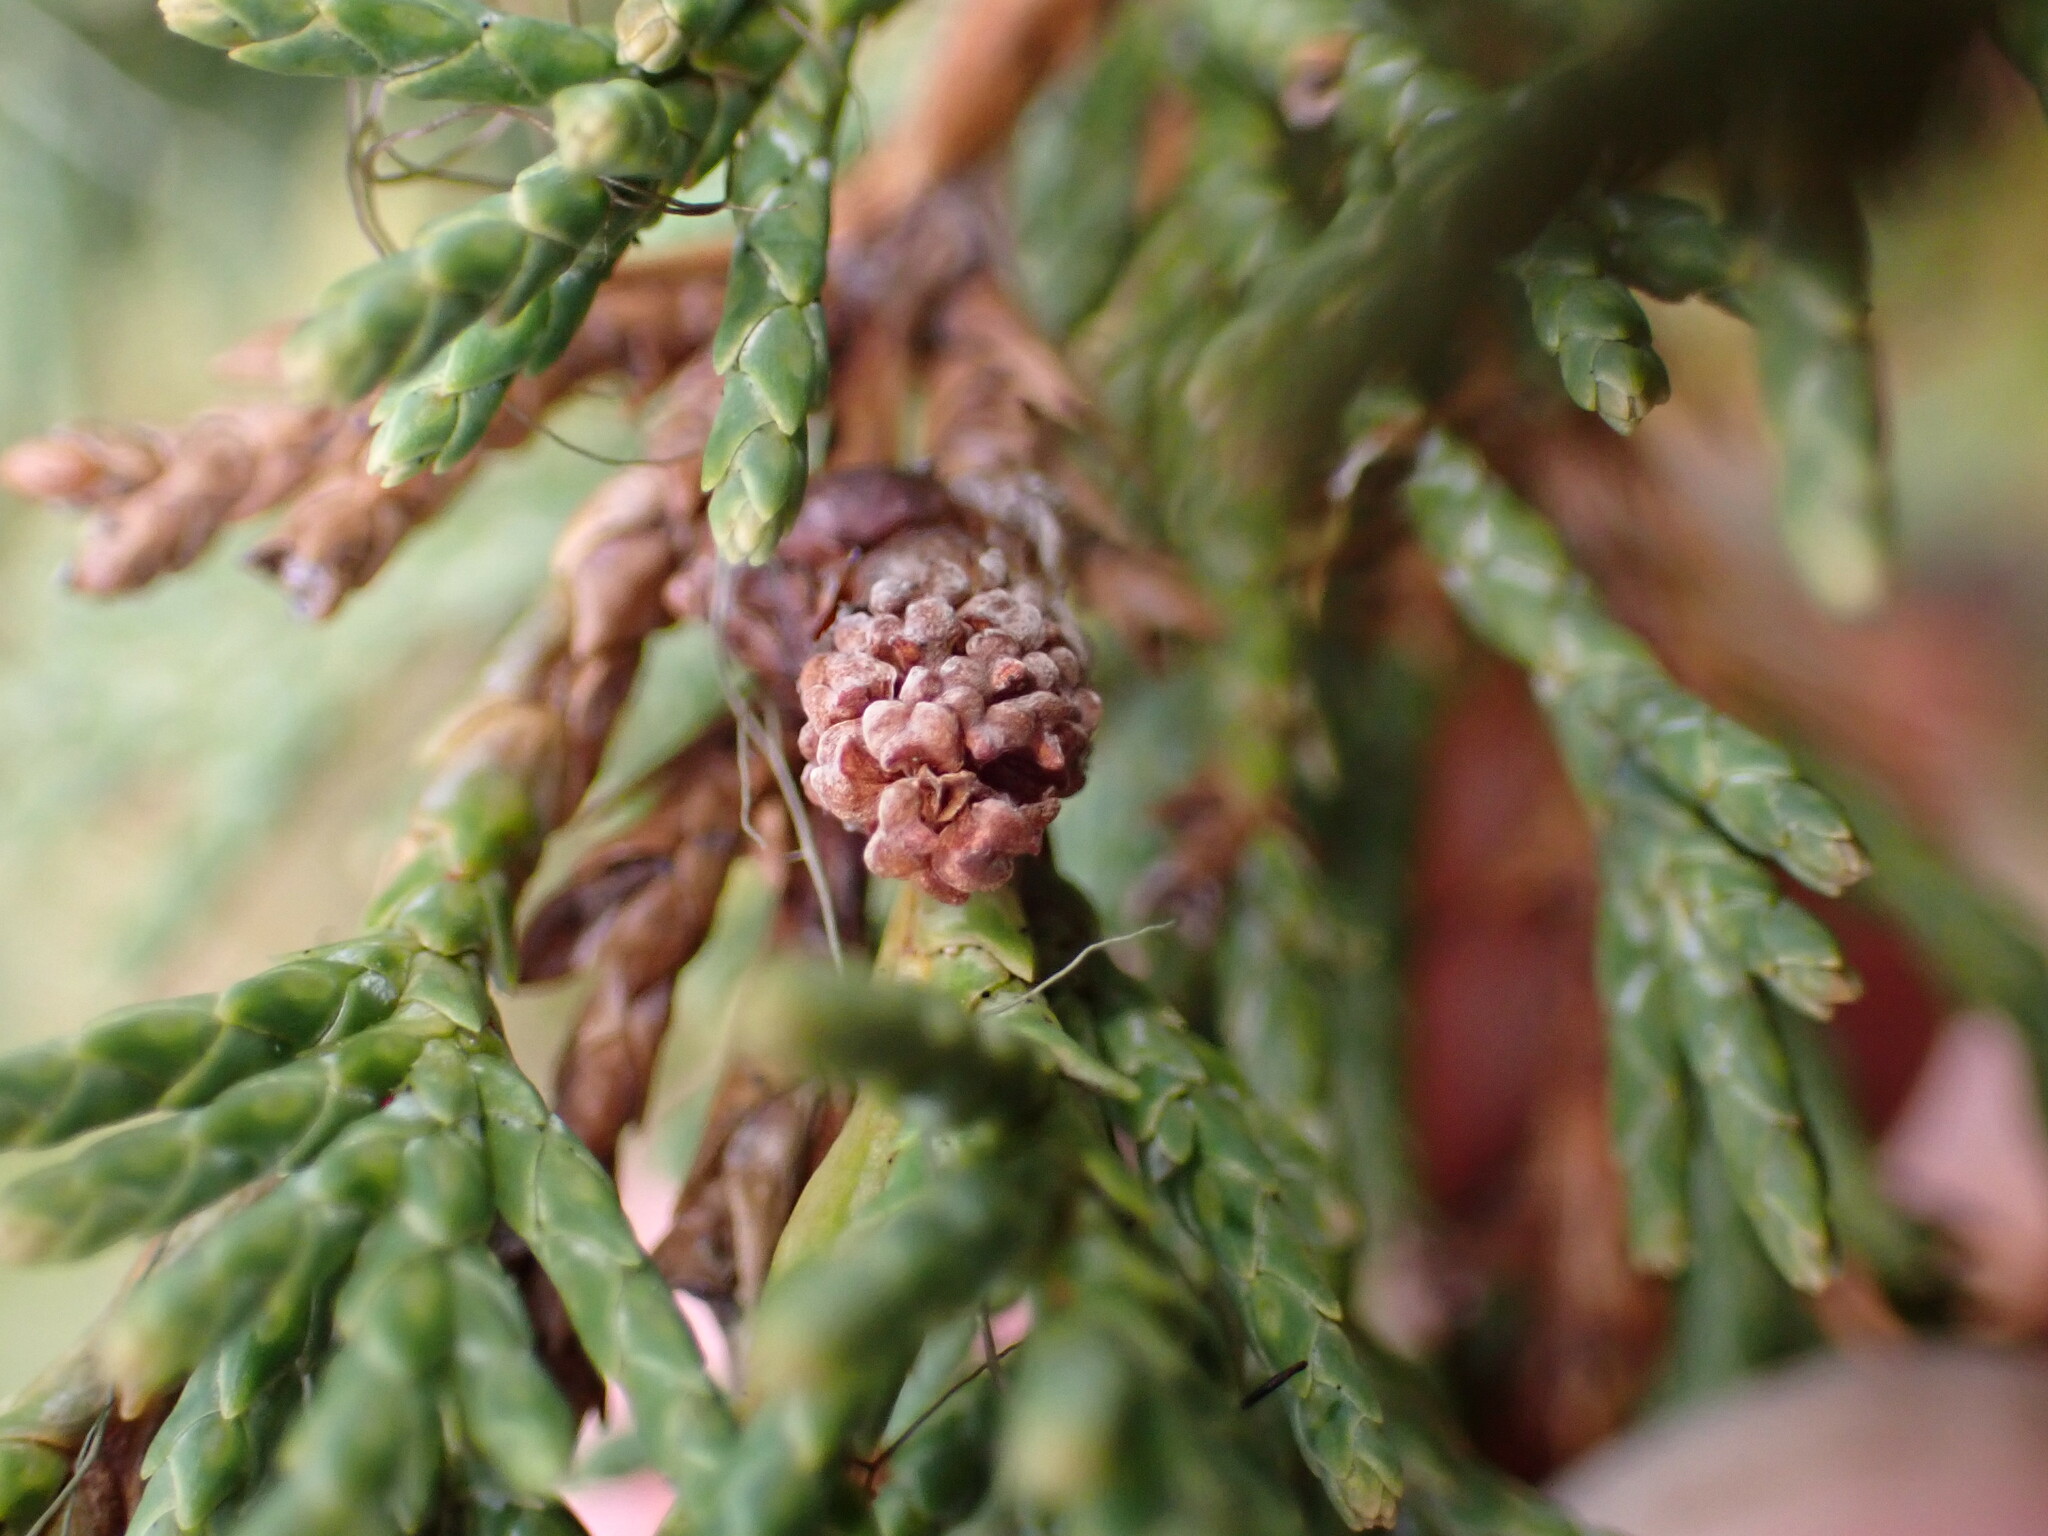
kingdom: Plantae
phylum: Tracheophyta
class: Pinopsida
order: Pinales
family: Cupressaceae
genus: Juniperus
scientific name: Juniperus scopulorum
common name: Rocky mountain juniper
